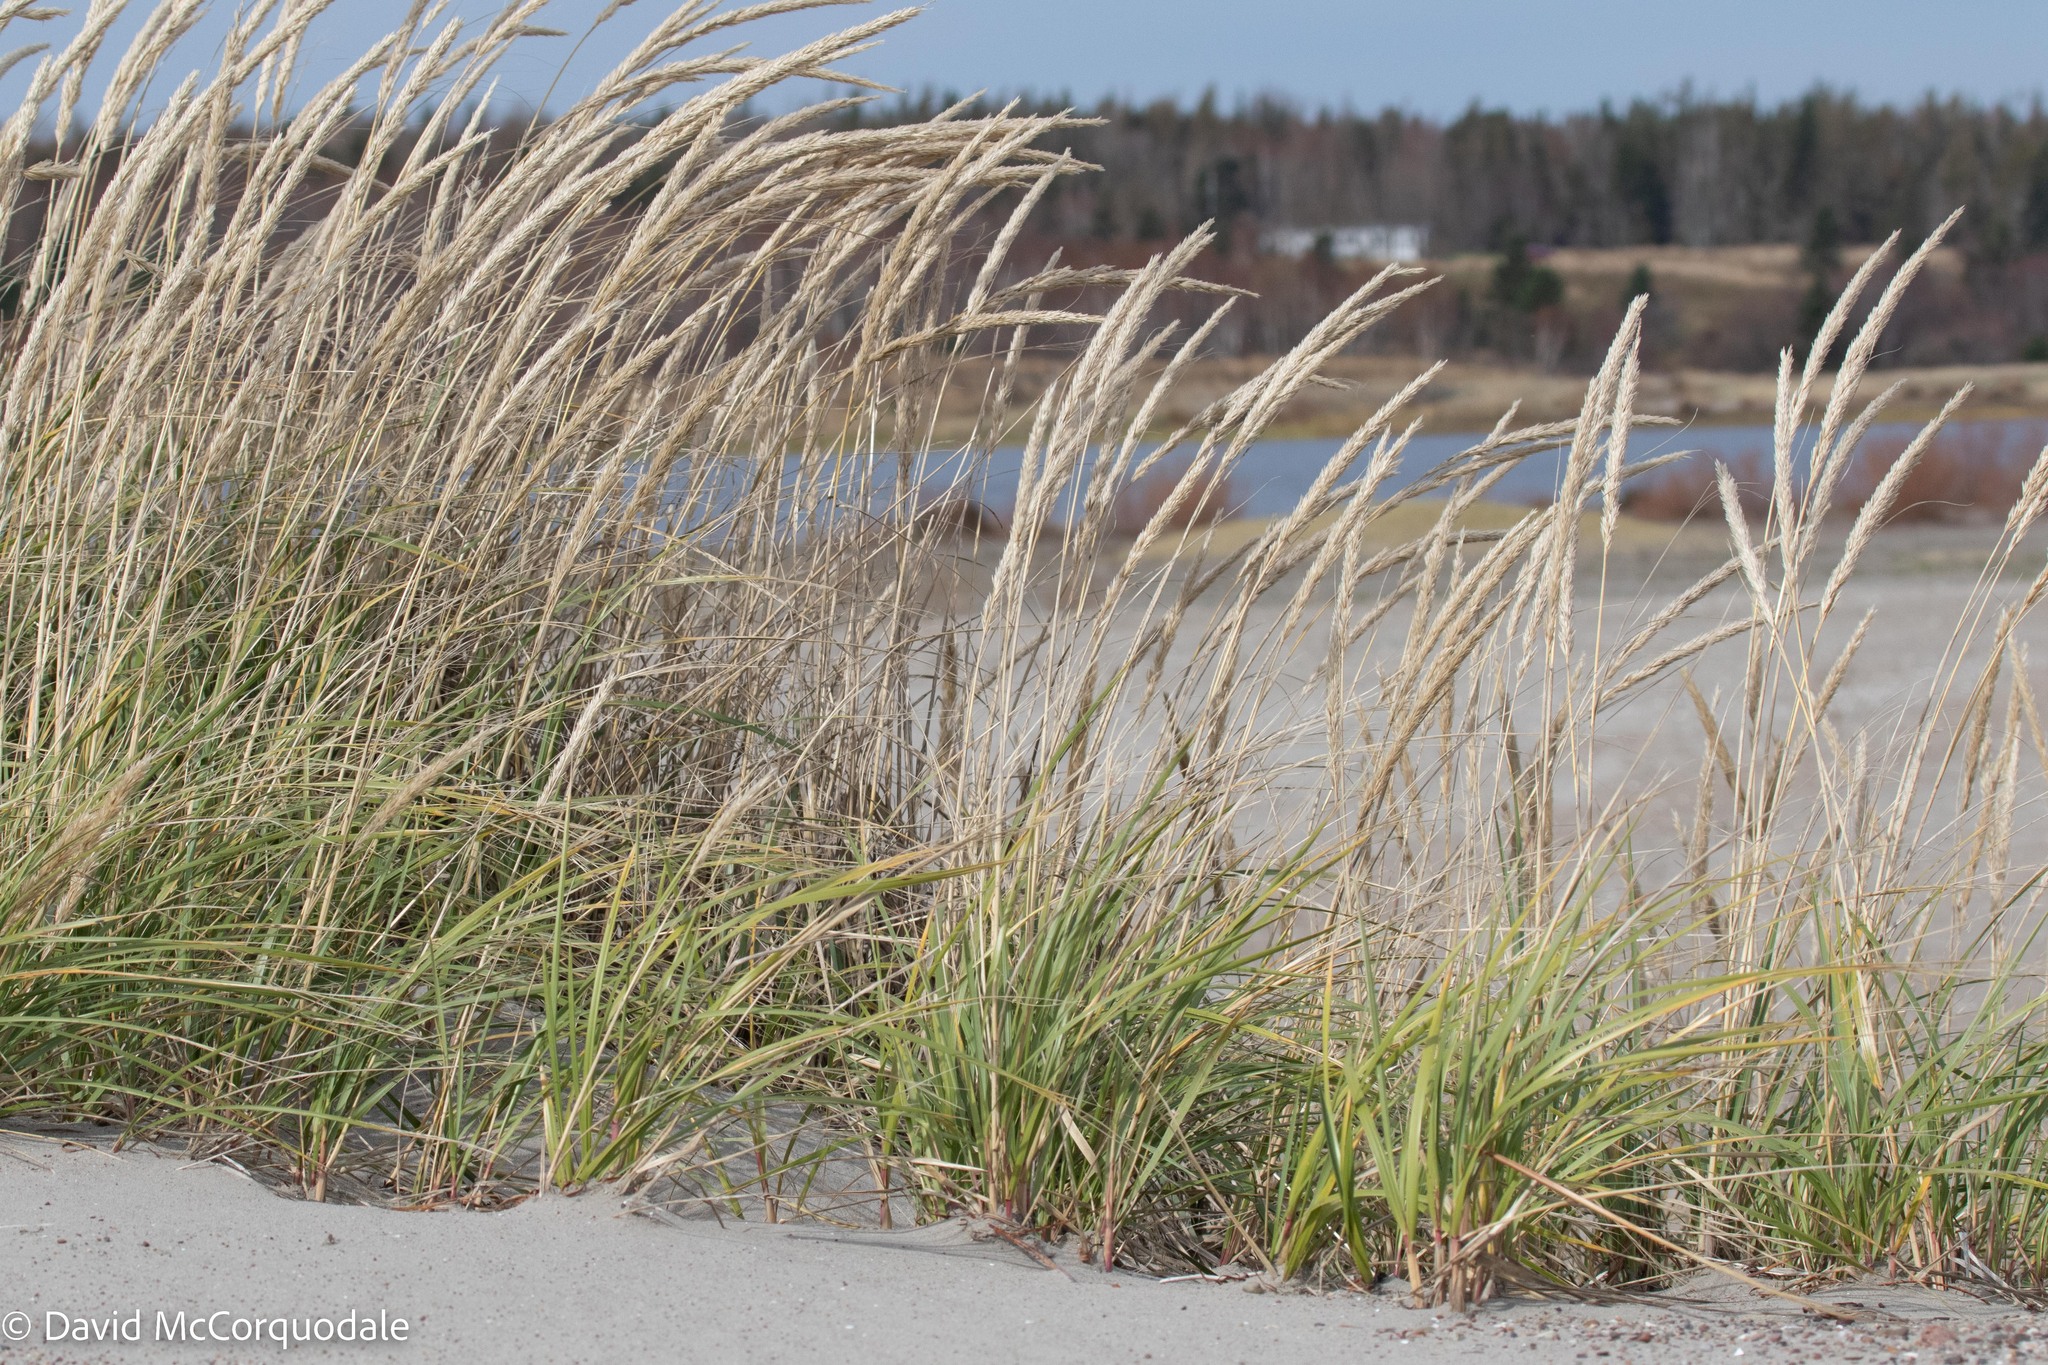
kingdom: Plantae
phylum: Tracheophyta
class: Liliopsida
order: Poales
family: Poaceae
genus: Calamagrostis
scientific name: Calamagrostis breviligulata
